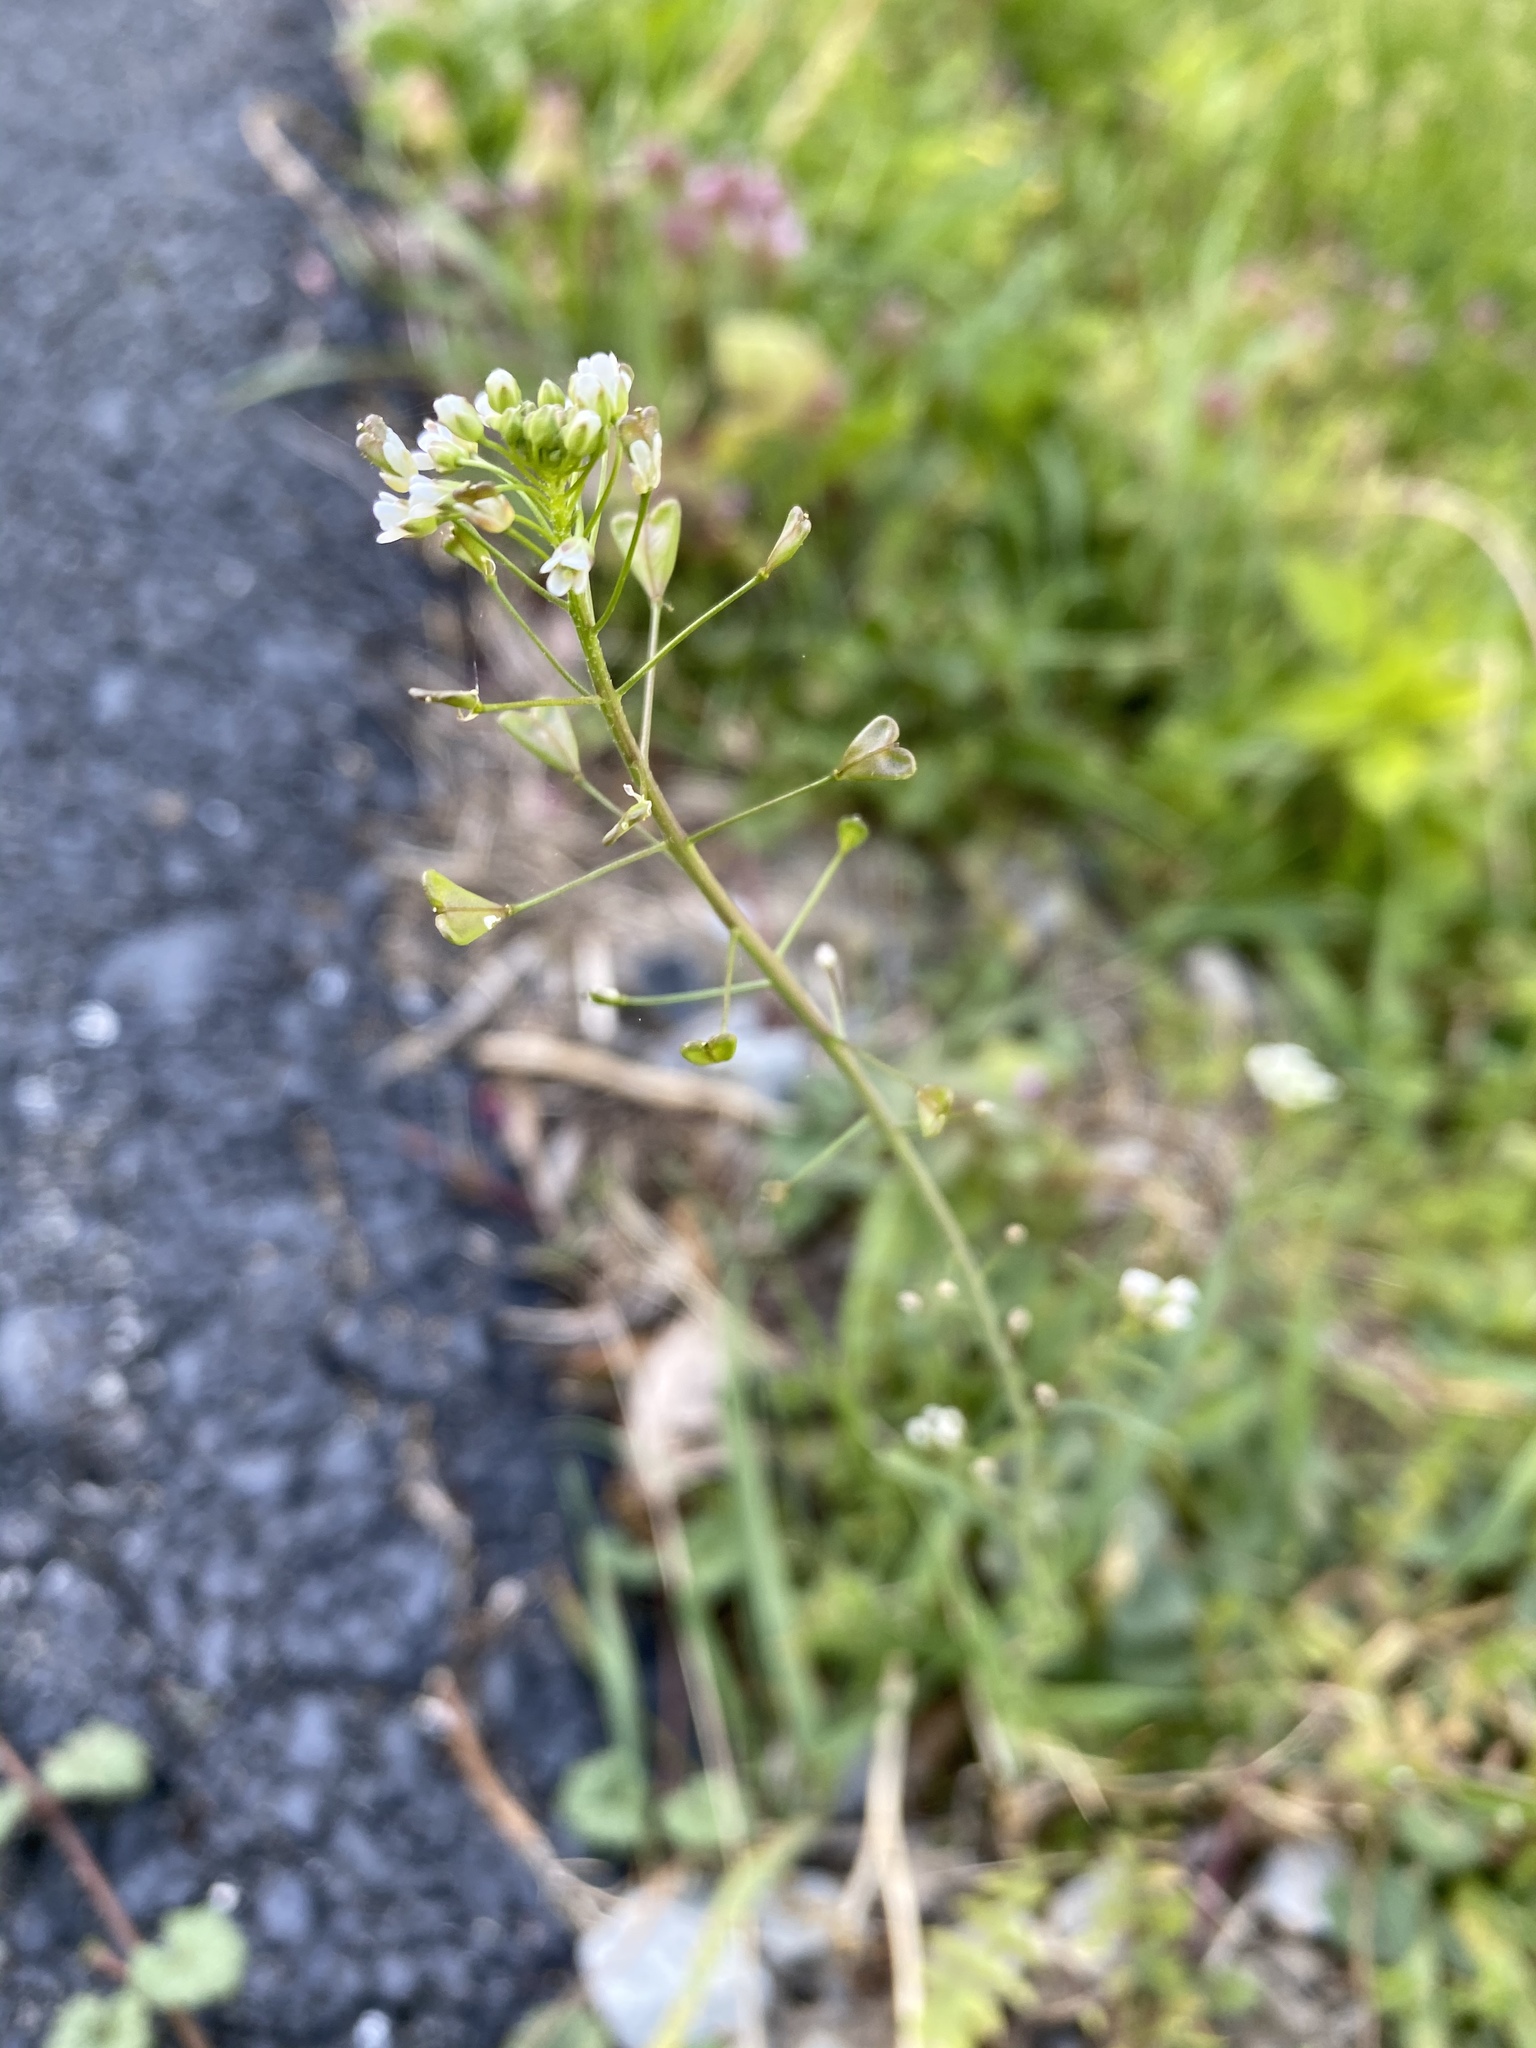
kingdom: Plantae
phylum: Tracheophyta
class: Magnoliopsida
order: Brassicales
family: Brassicaceae
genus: Capsella
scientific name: Capsella bursa-pastoris
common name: Shepherd's purse
